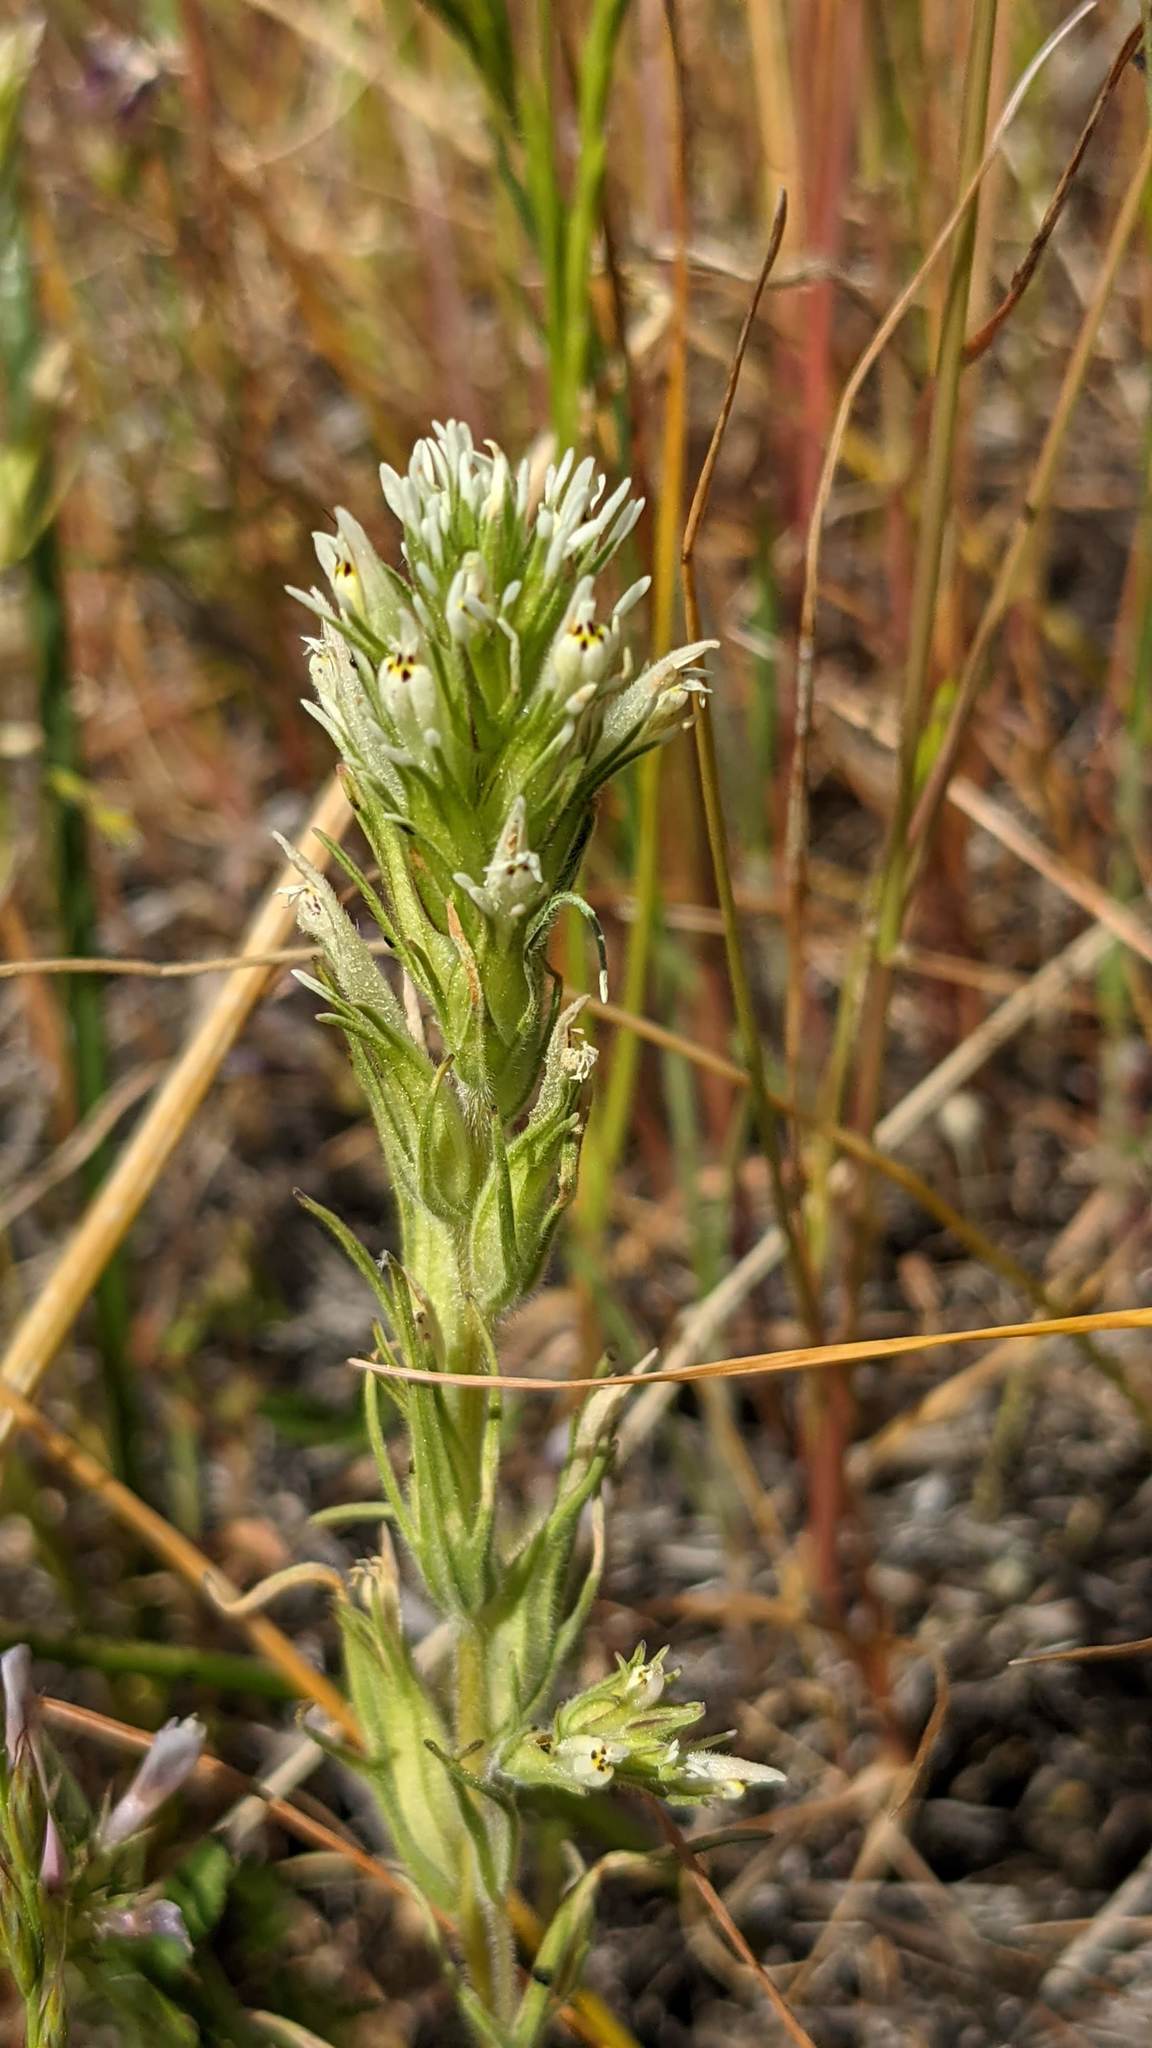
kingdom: Plantae
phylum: Tracheophyta
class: Magnoliopsida
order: Lamiales
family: Orobanchaceae
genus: Castilleja
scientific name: Castilleja attenuata
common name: Valley tassels
